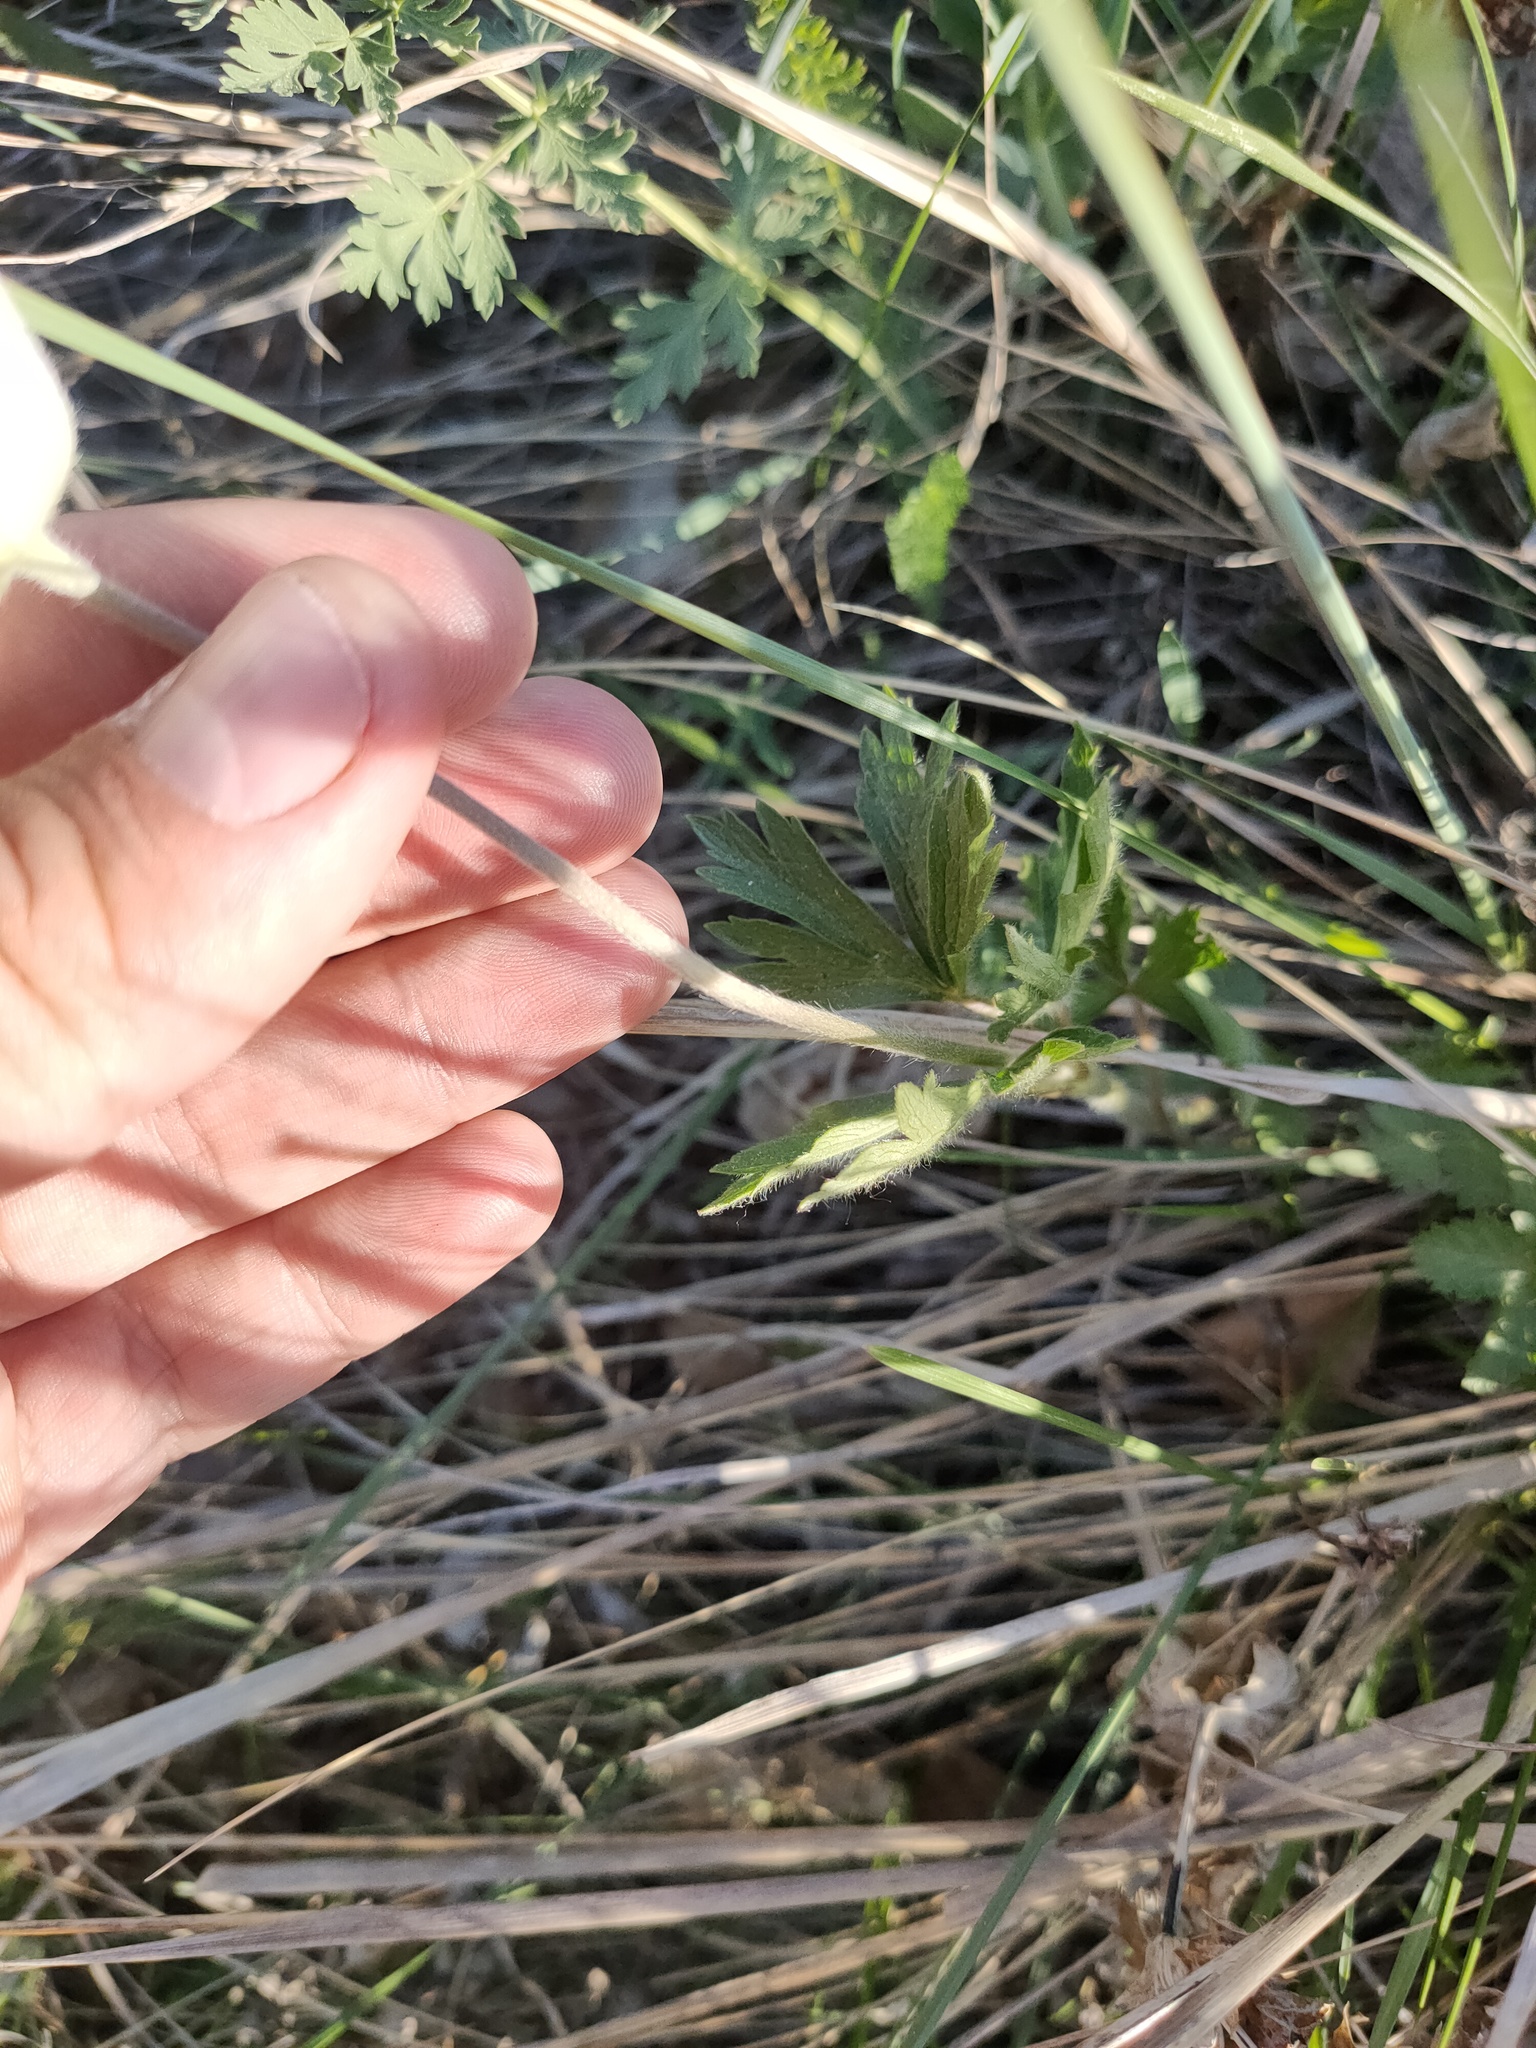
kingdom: Plantae
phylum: Tracheophyta
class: Magnoliopsida
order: Ranunculales
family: Ranunculaceae
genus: Anemone
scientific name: Anemone sylvestris
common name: Snowdrop anemone
